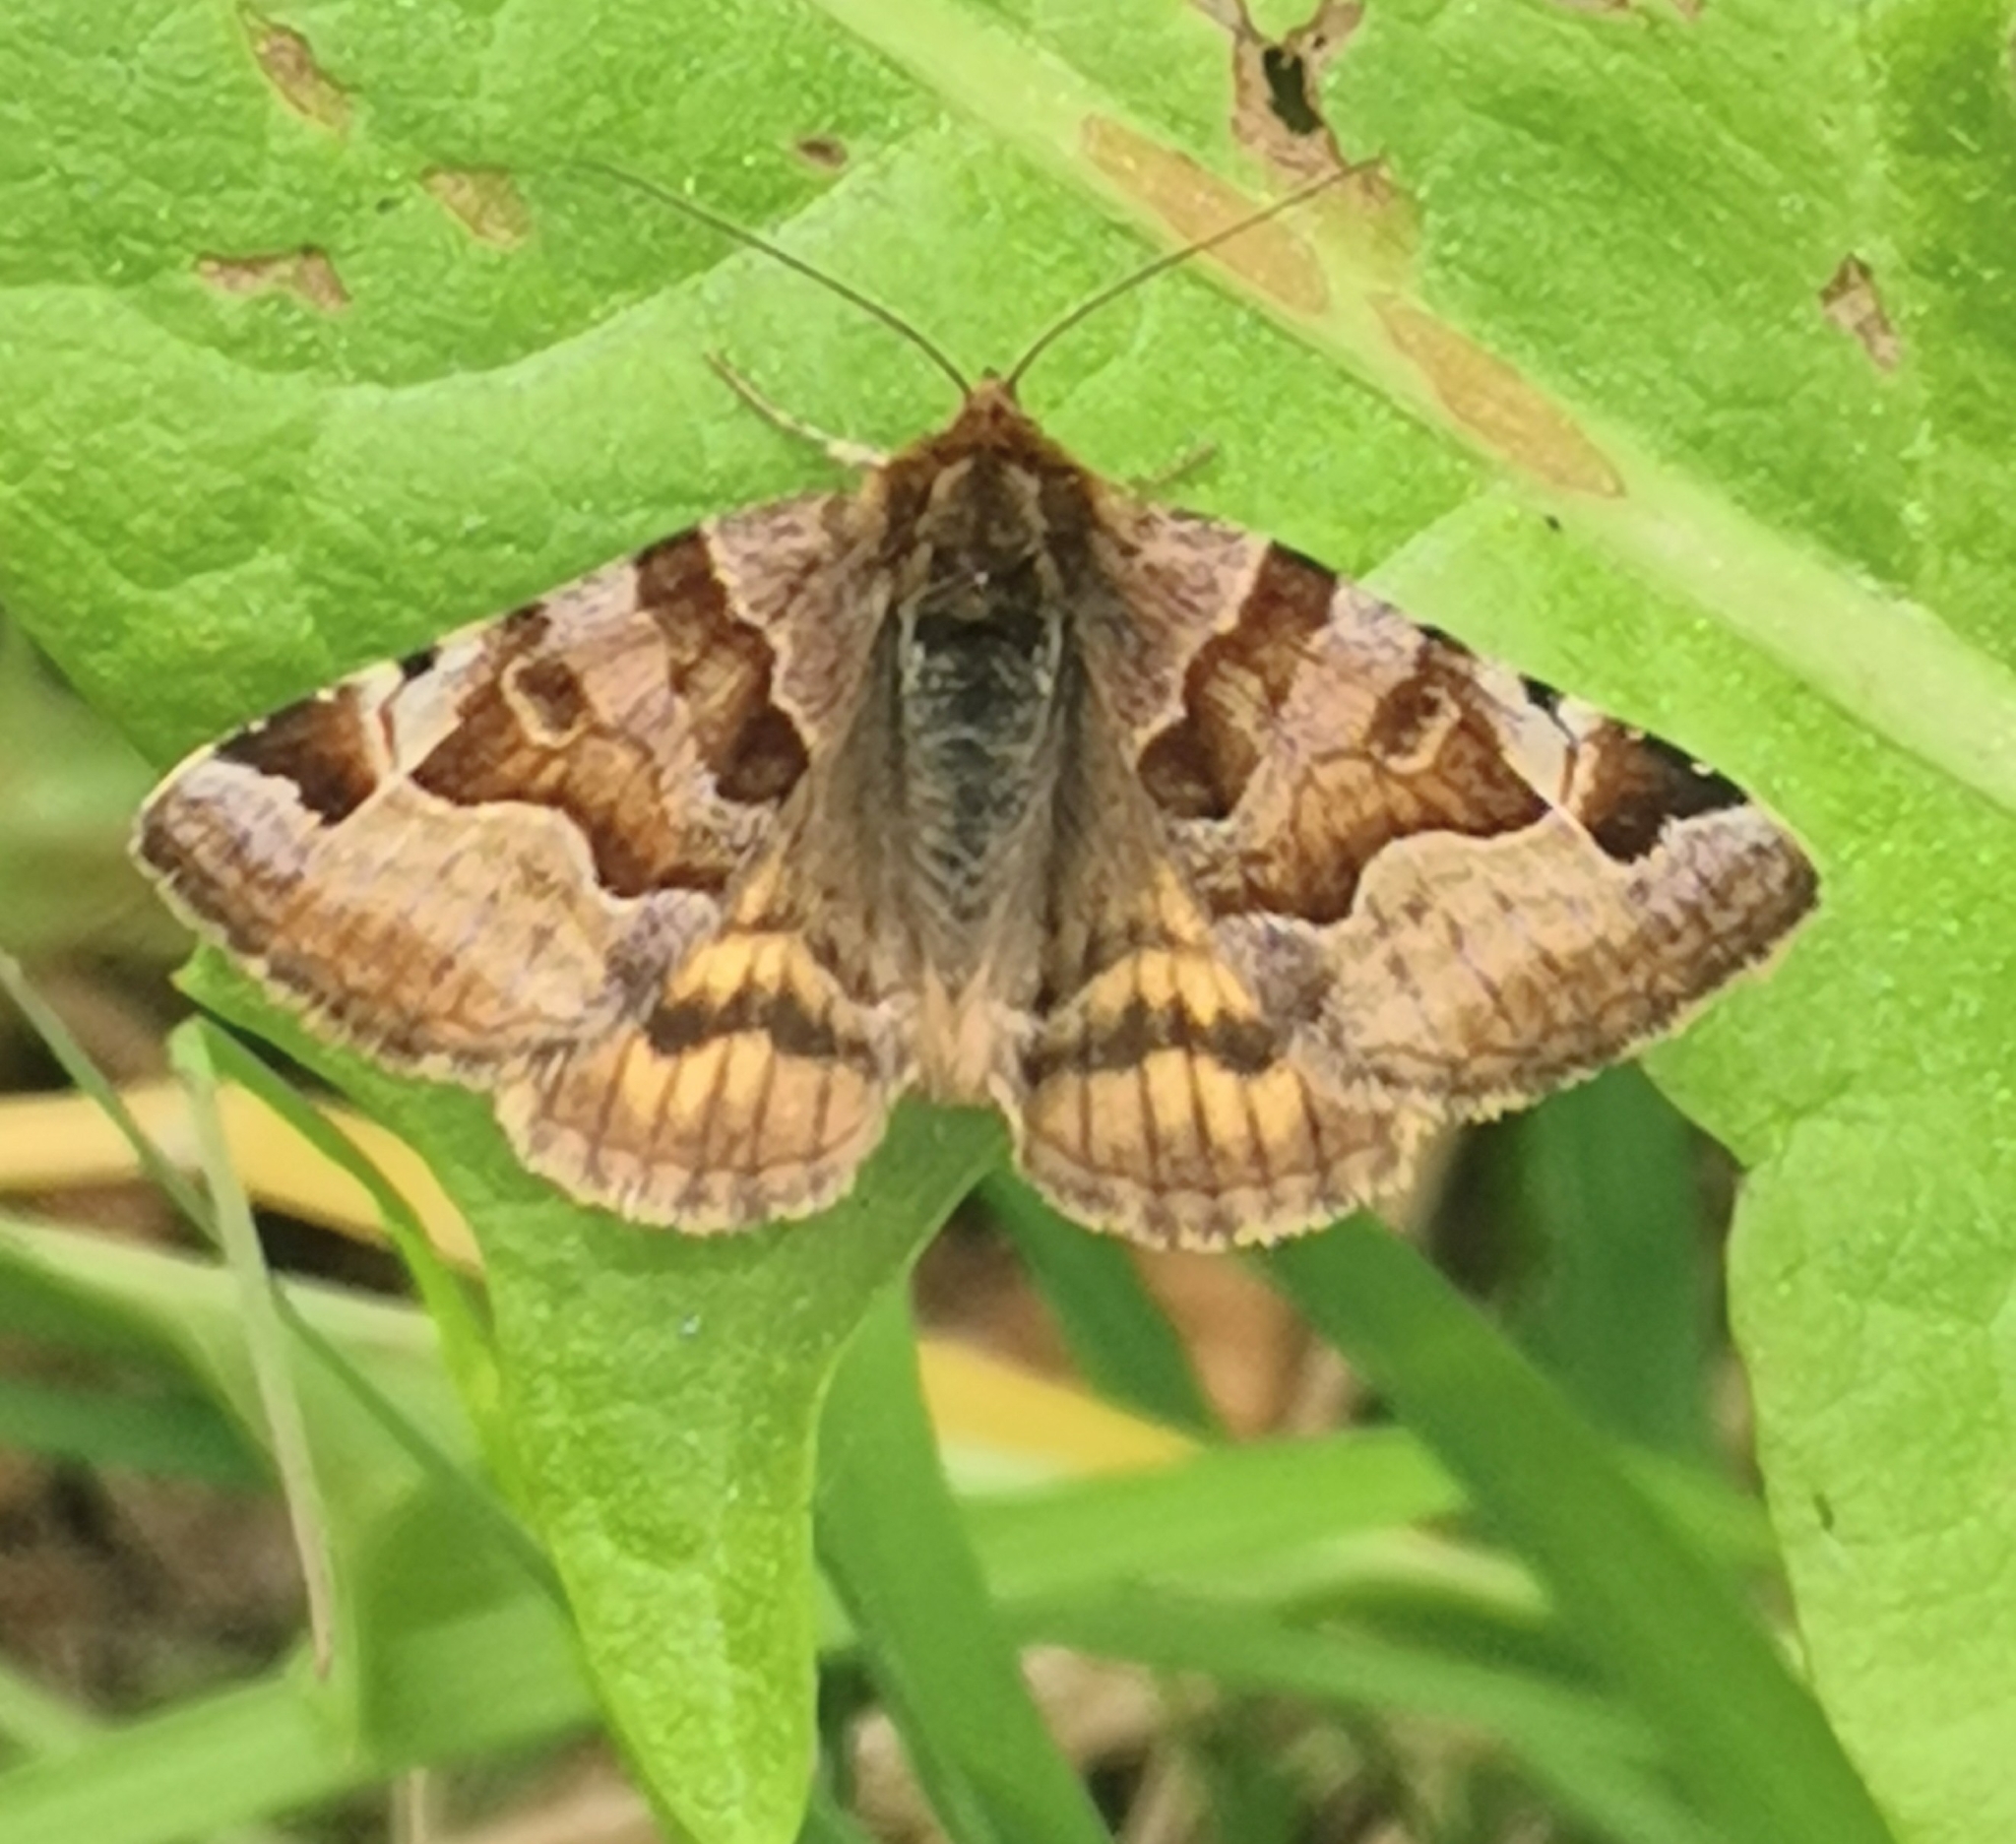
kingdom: Animalia
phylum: Arthropoda
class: Insecta
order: Lepidoptera
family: Erebidae
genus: Euclidia
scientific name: Euclidia glyphica
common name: Burnet companion
